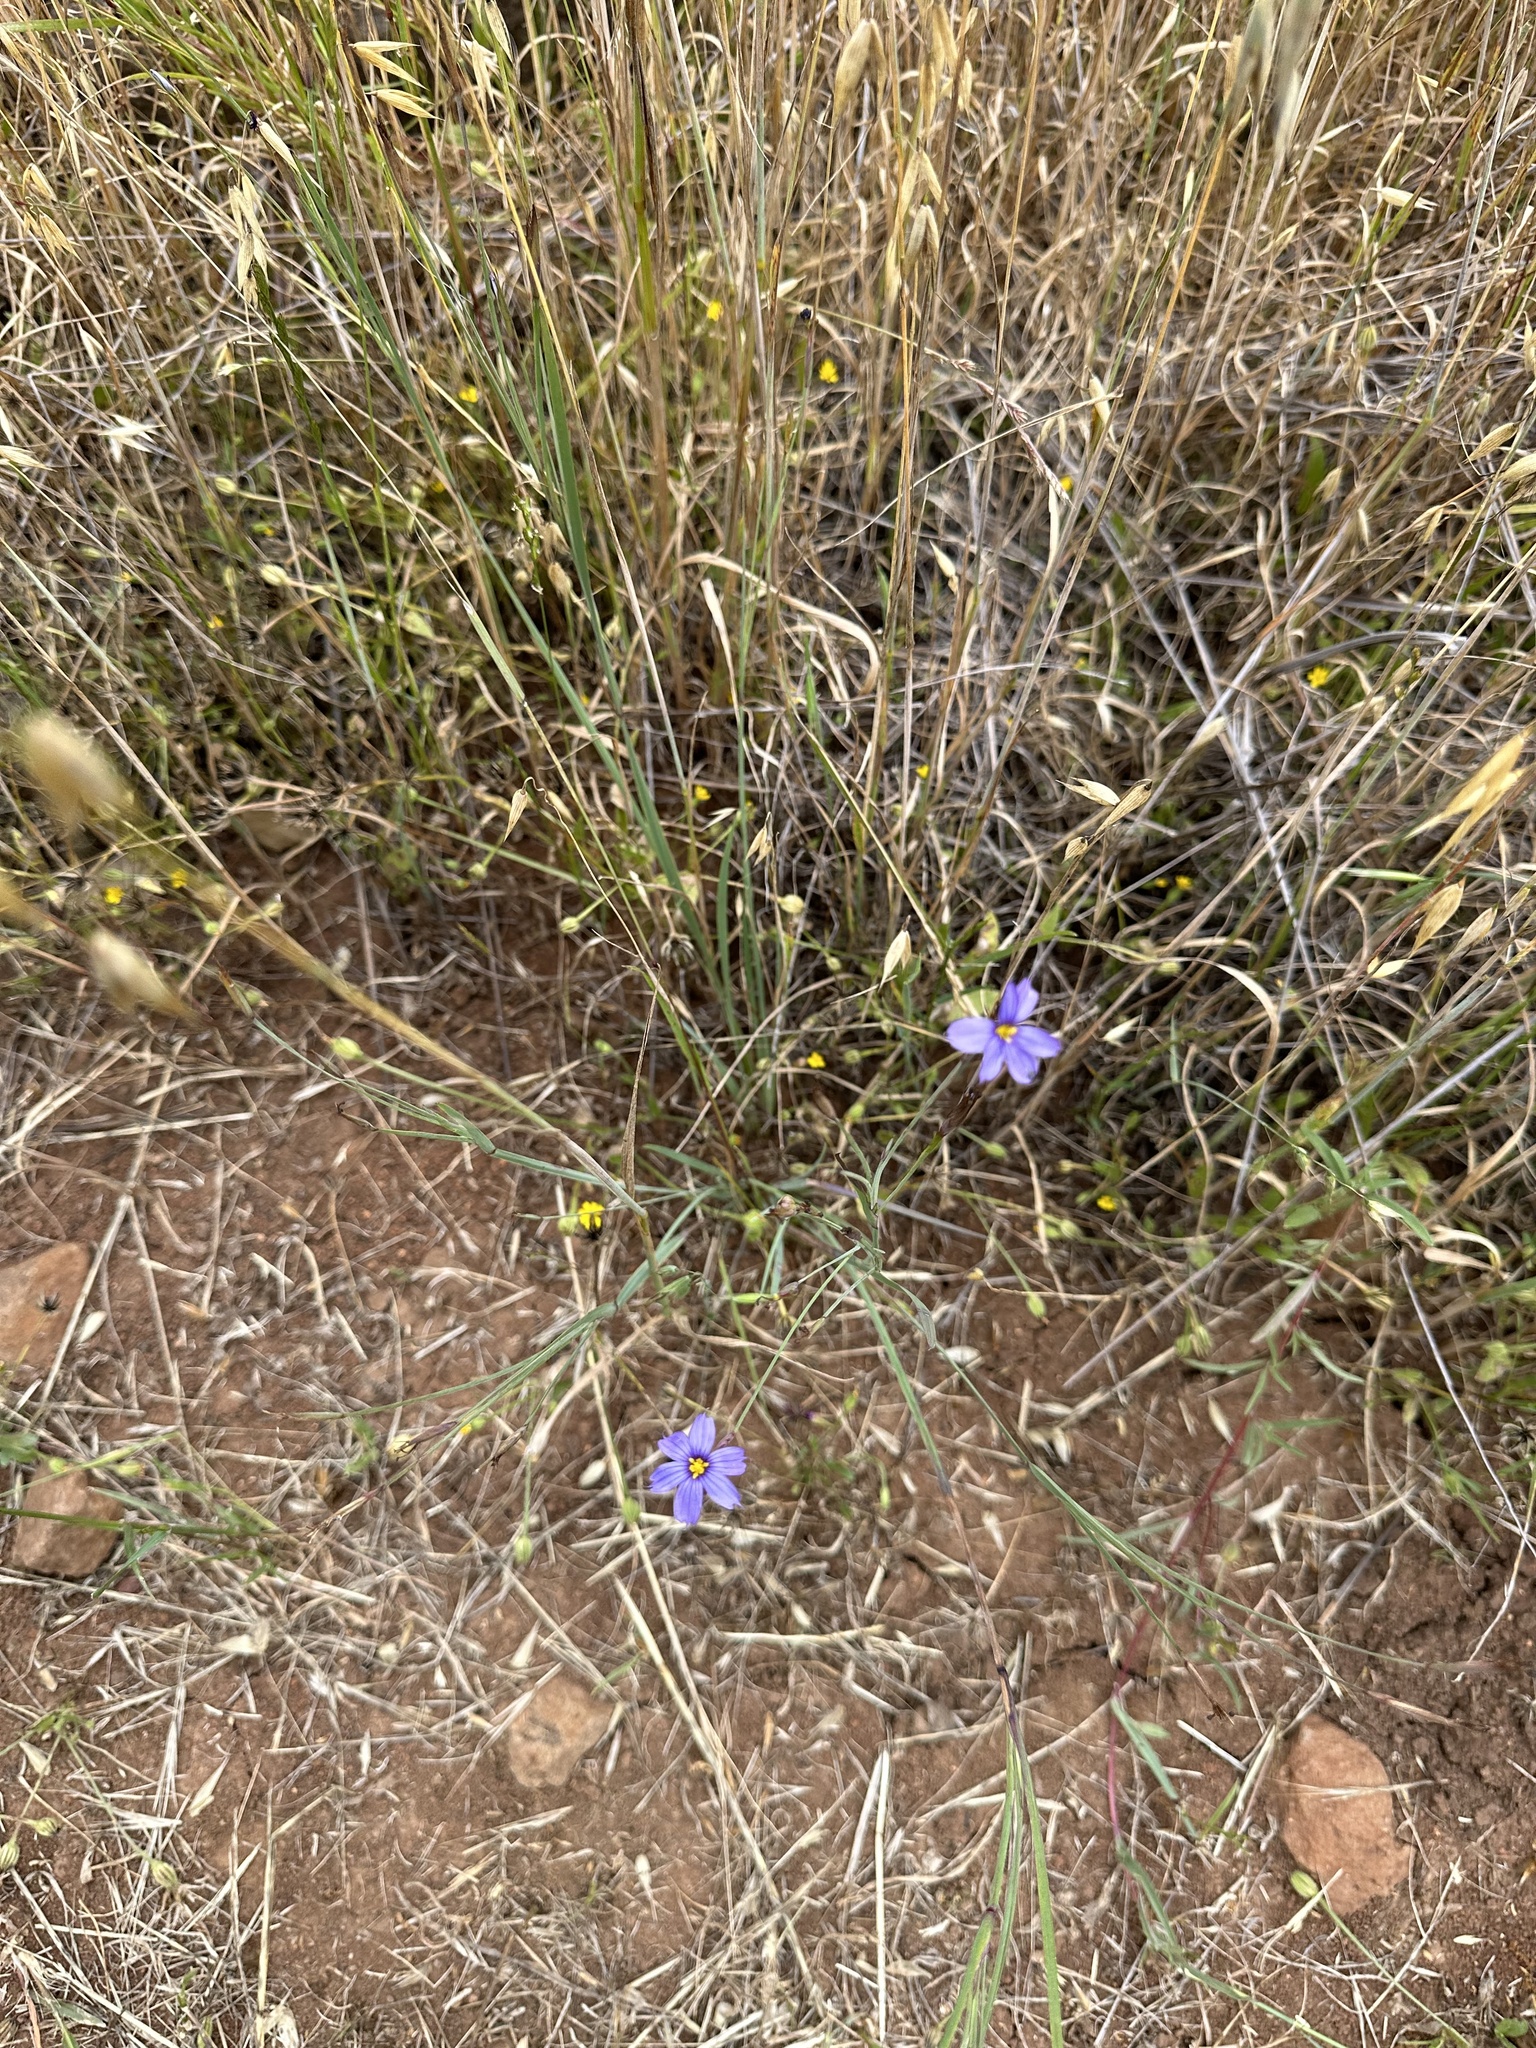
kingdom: Plantae
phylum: Tracheophyta
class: Liliopsida
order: Asparagales
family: Iridaceae
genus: Sisyrinchium
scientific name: Sisyrinchium bellum
